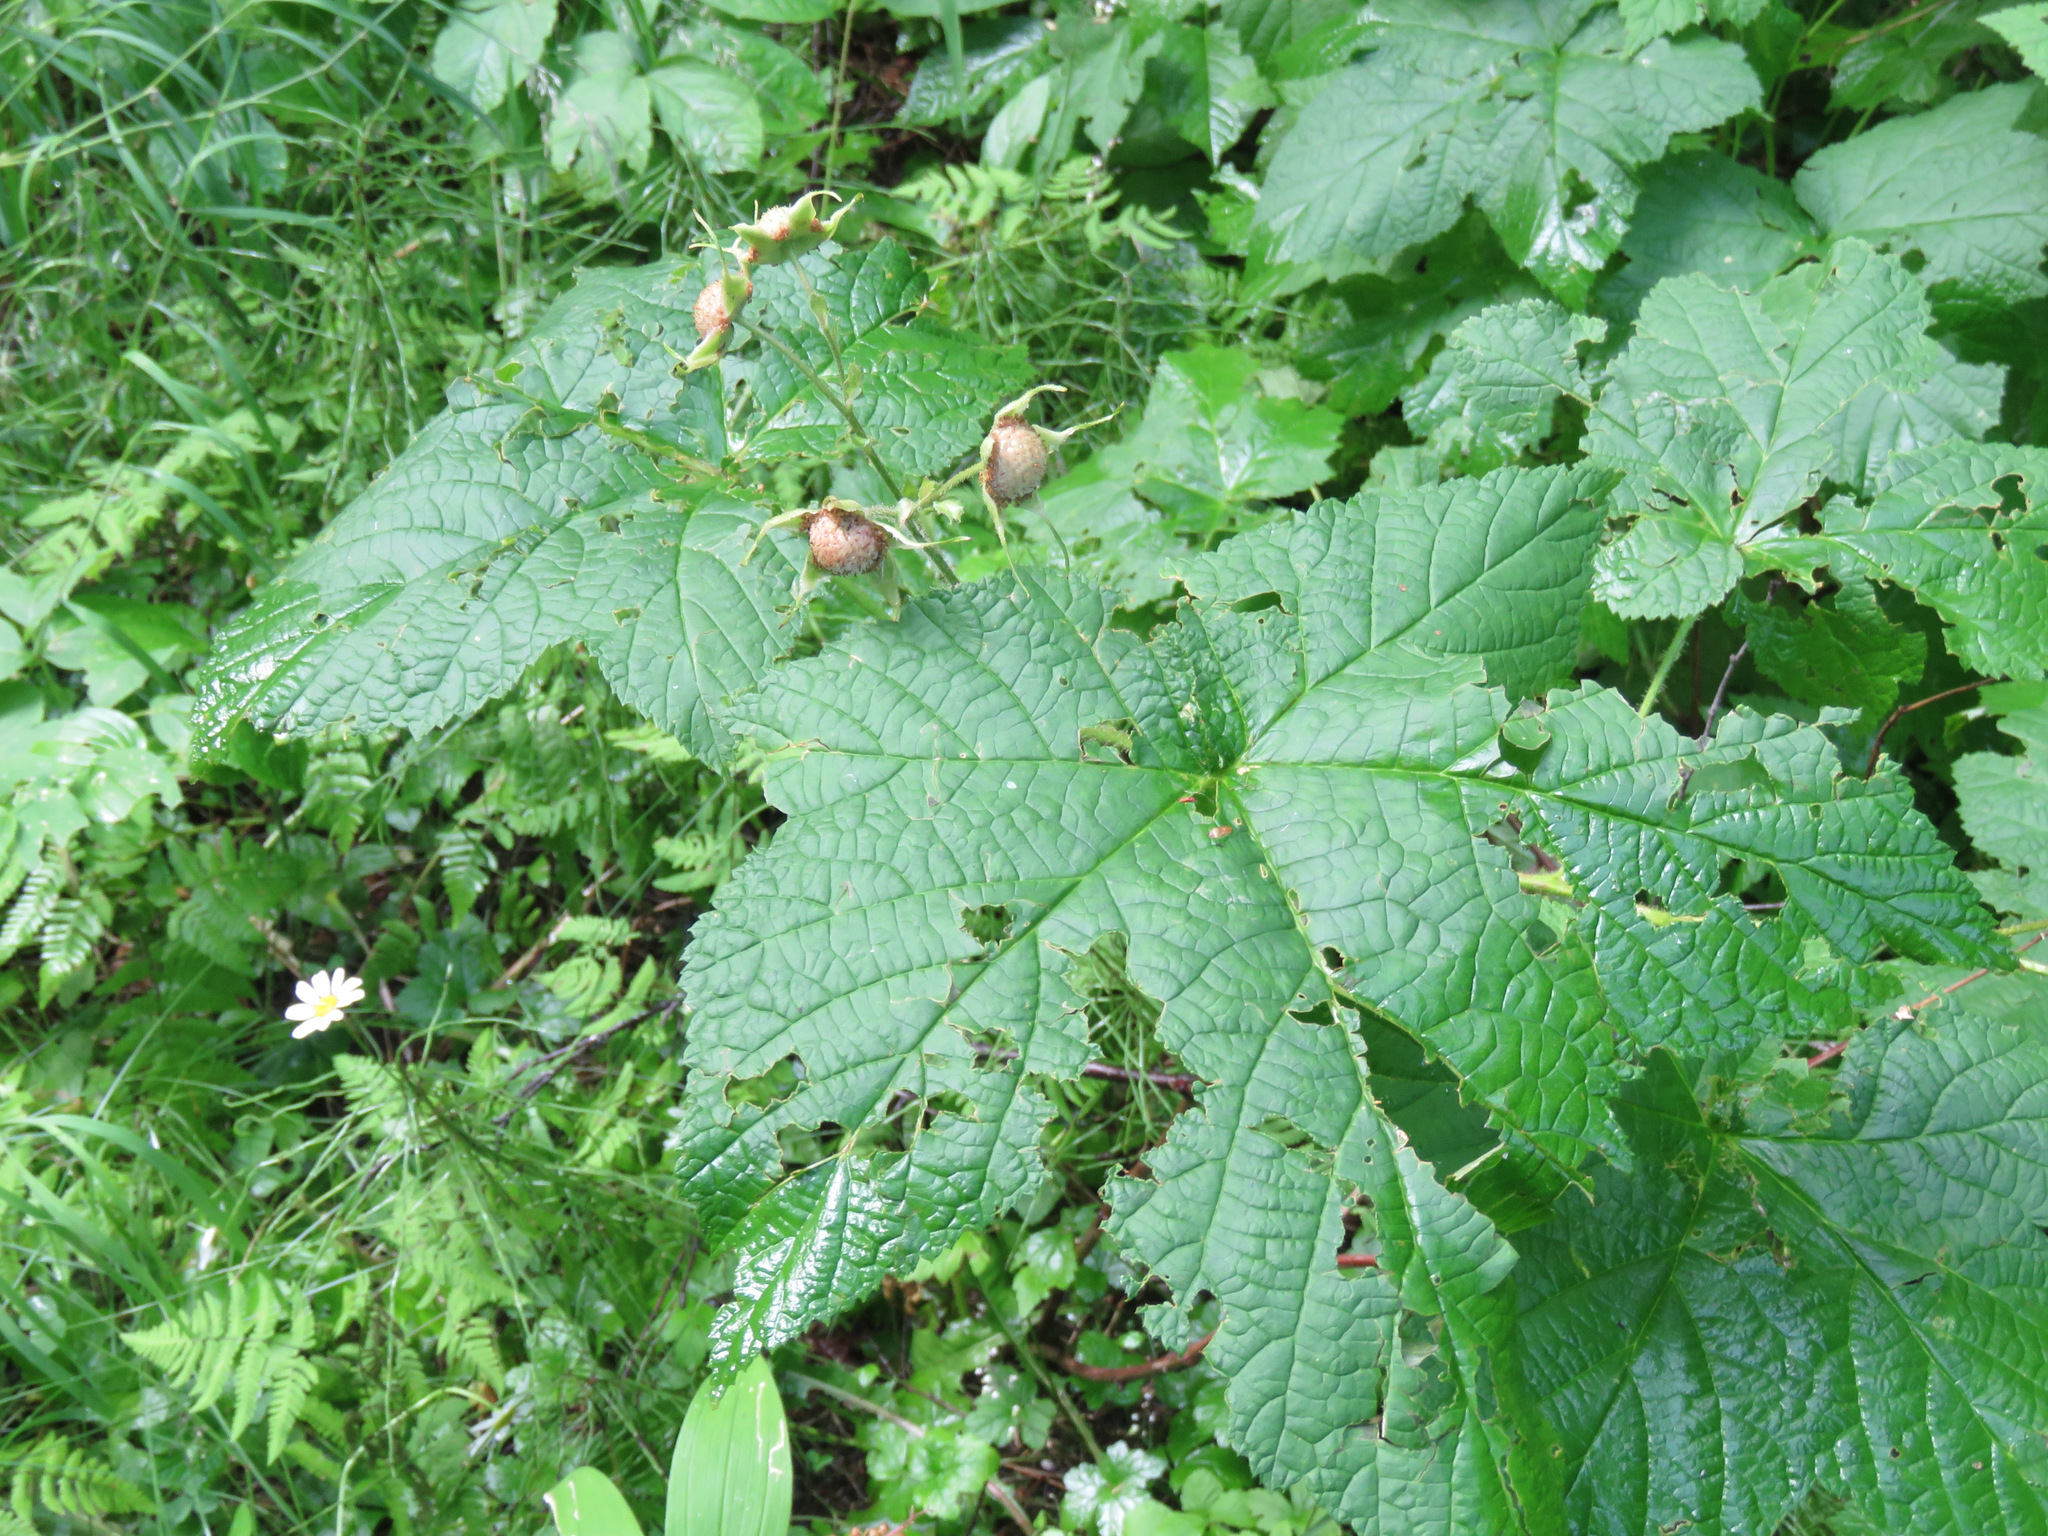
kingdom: Plantae
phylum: Tracheophyta
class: Magnoliopsida
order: Rosales
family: Rosaceae
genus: Rubus
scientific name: Rubus parviflorus
